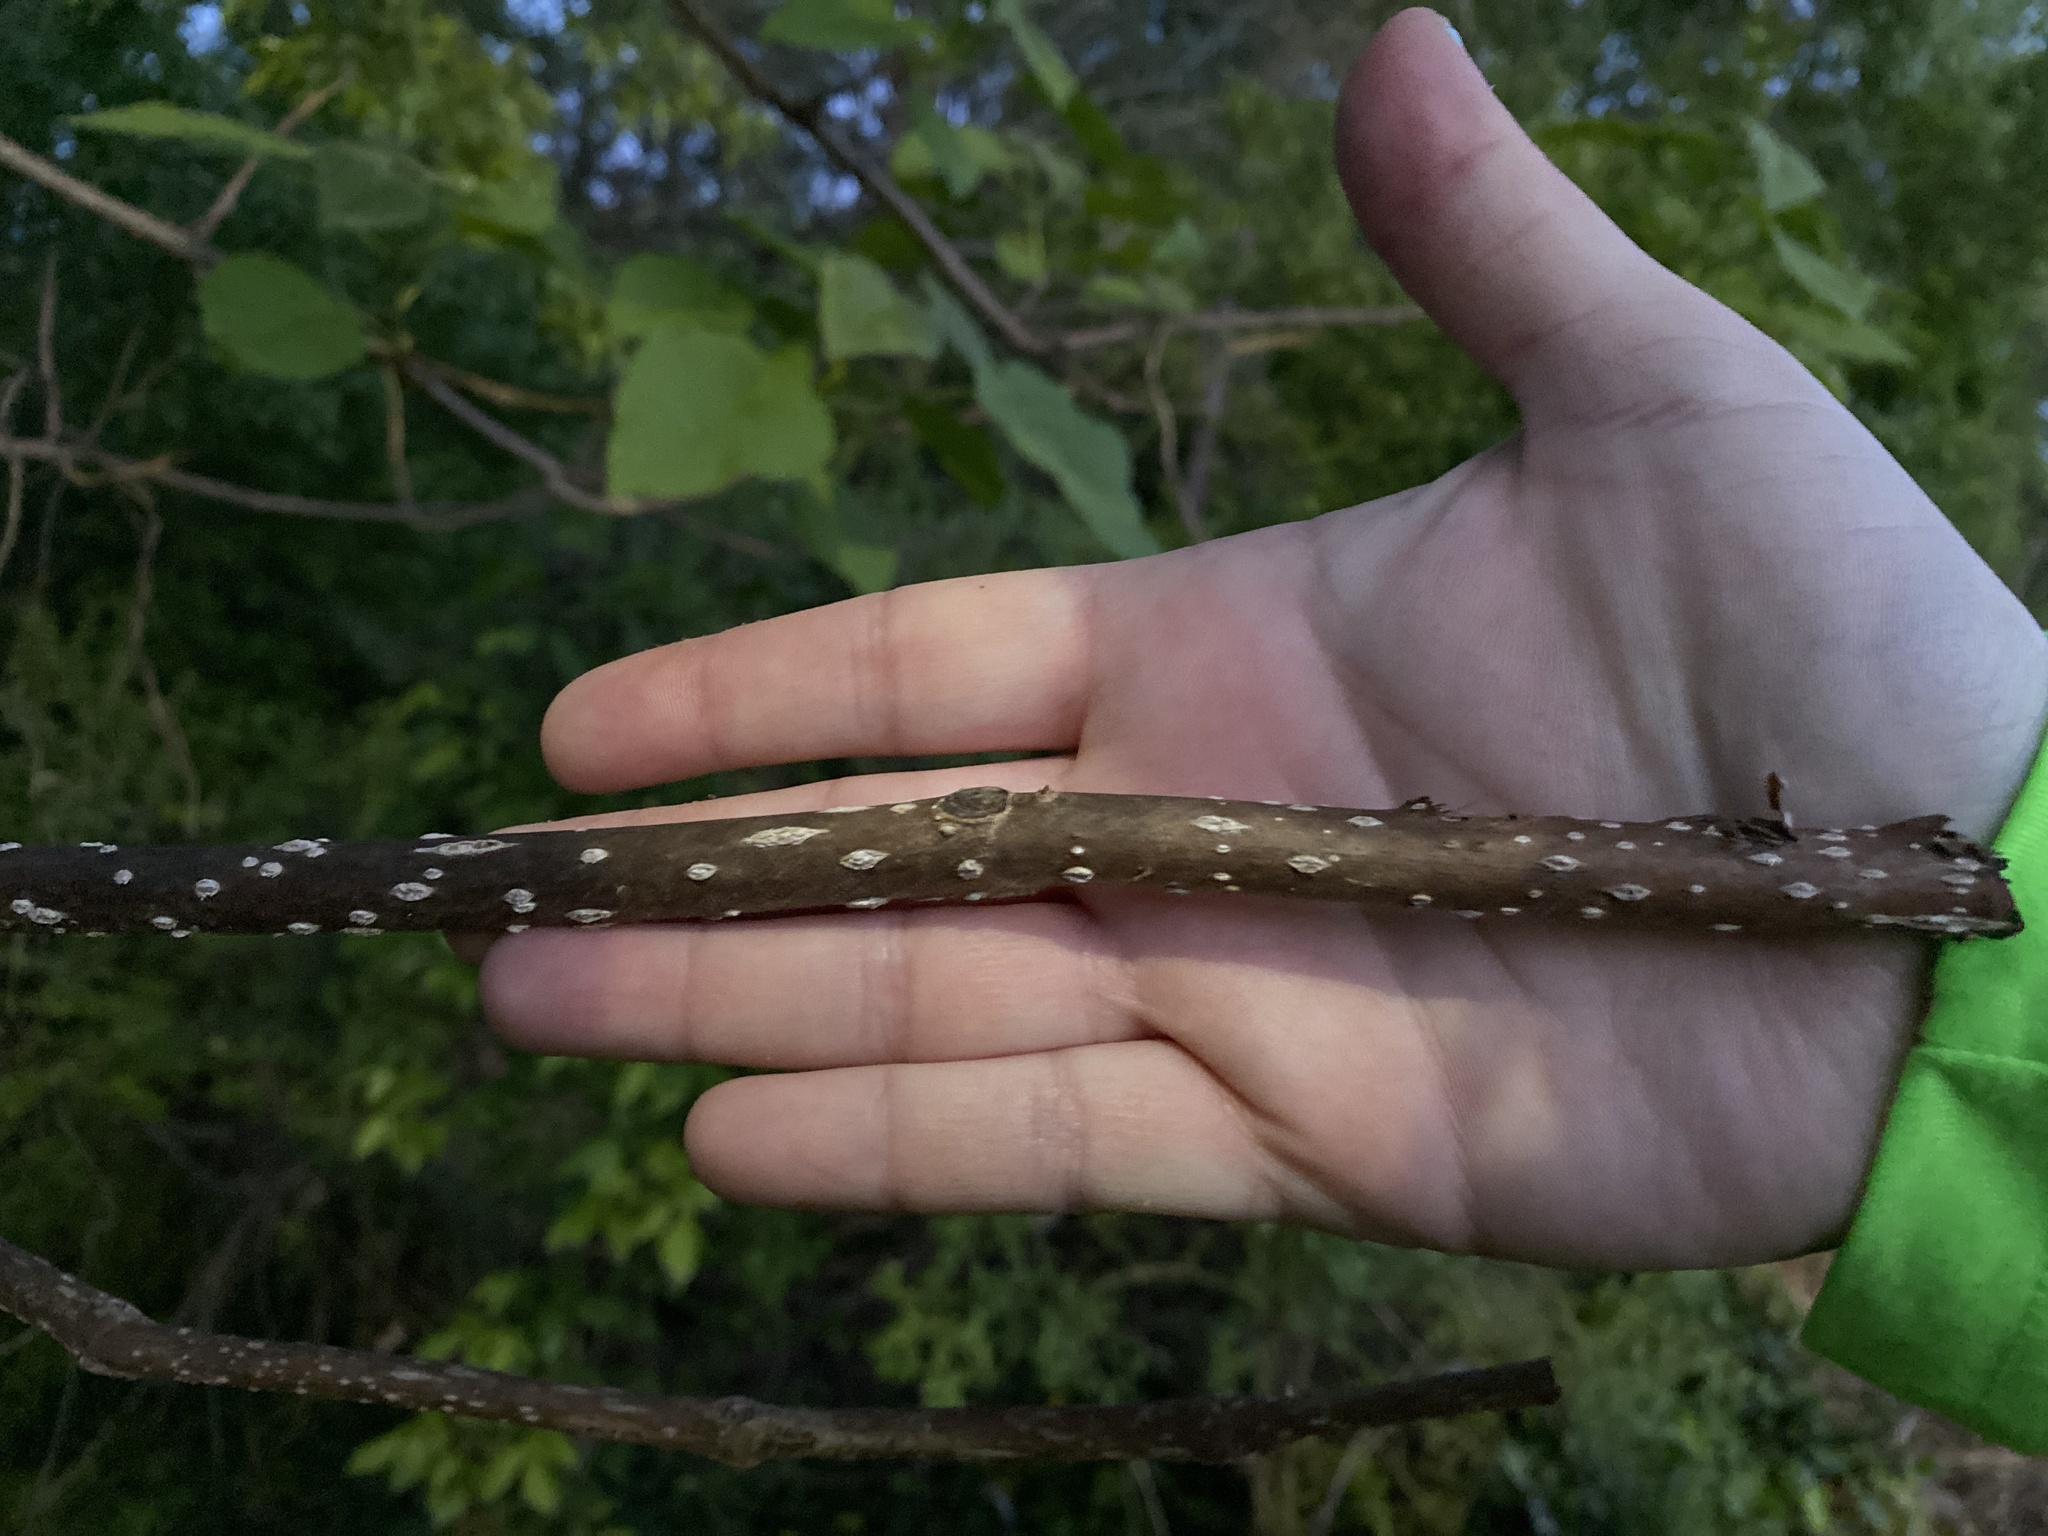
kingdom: Plantae
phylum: Tracheophyta
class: Magnoliopsida
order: Lamiales
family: Paulowniaceae
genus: Paulownia
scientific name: Paulownia tomentosa
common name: Foxglove-tree
